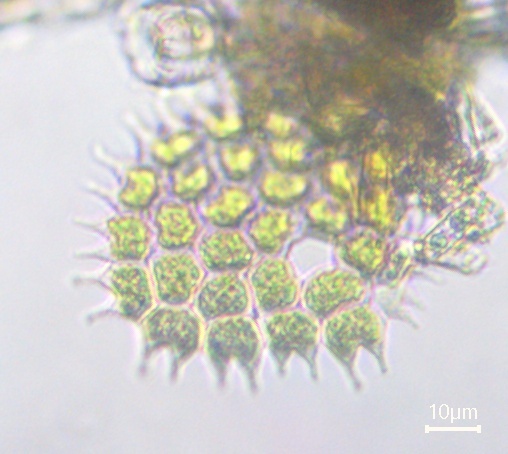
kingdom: Plantae
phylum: Chlorophyta
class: Chlorophyceae
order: Sphaeropleales
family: Hydrodictyaceae
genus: Pseudopediastrum
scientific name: Pseudopediastrum boryanum
